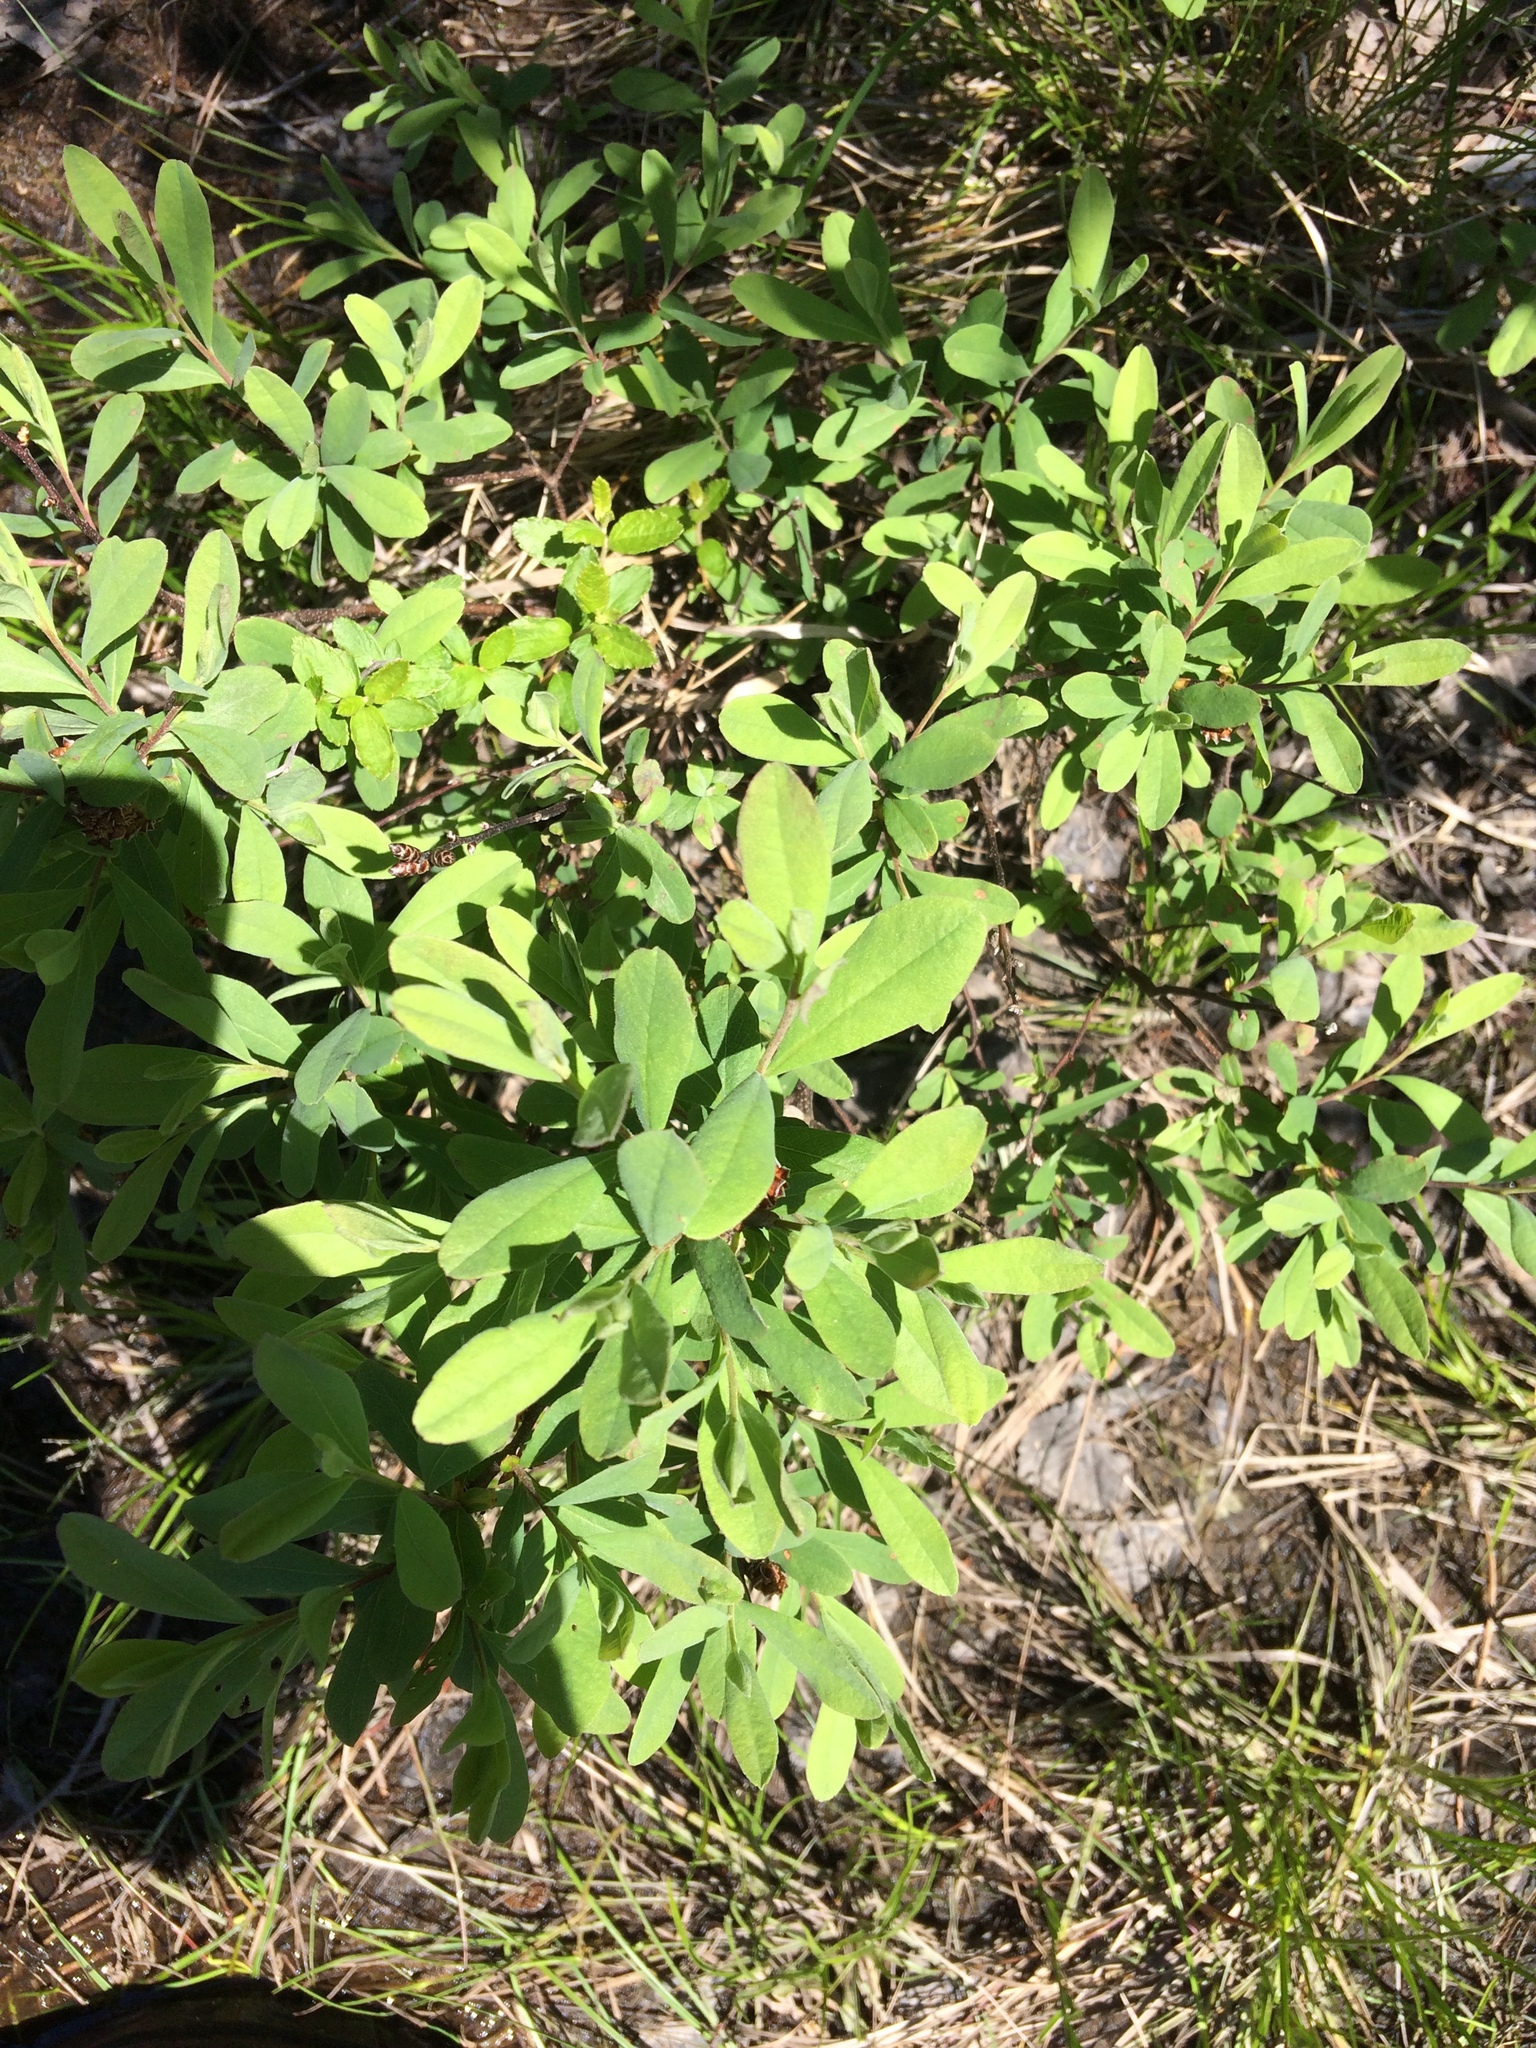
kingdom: Plantae
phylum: Tracheophyta
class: Magnoliopsida
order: Fagales
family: Myricaceae
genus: Myrica
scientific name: Myrica gale
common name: Sweet gale
